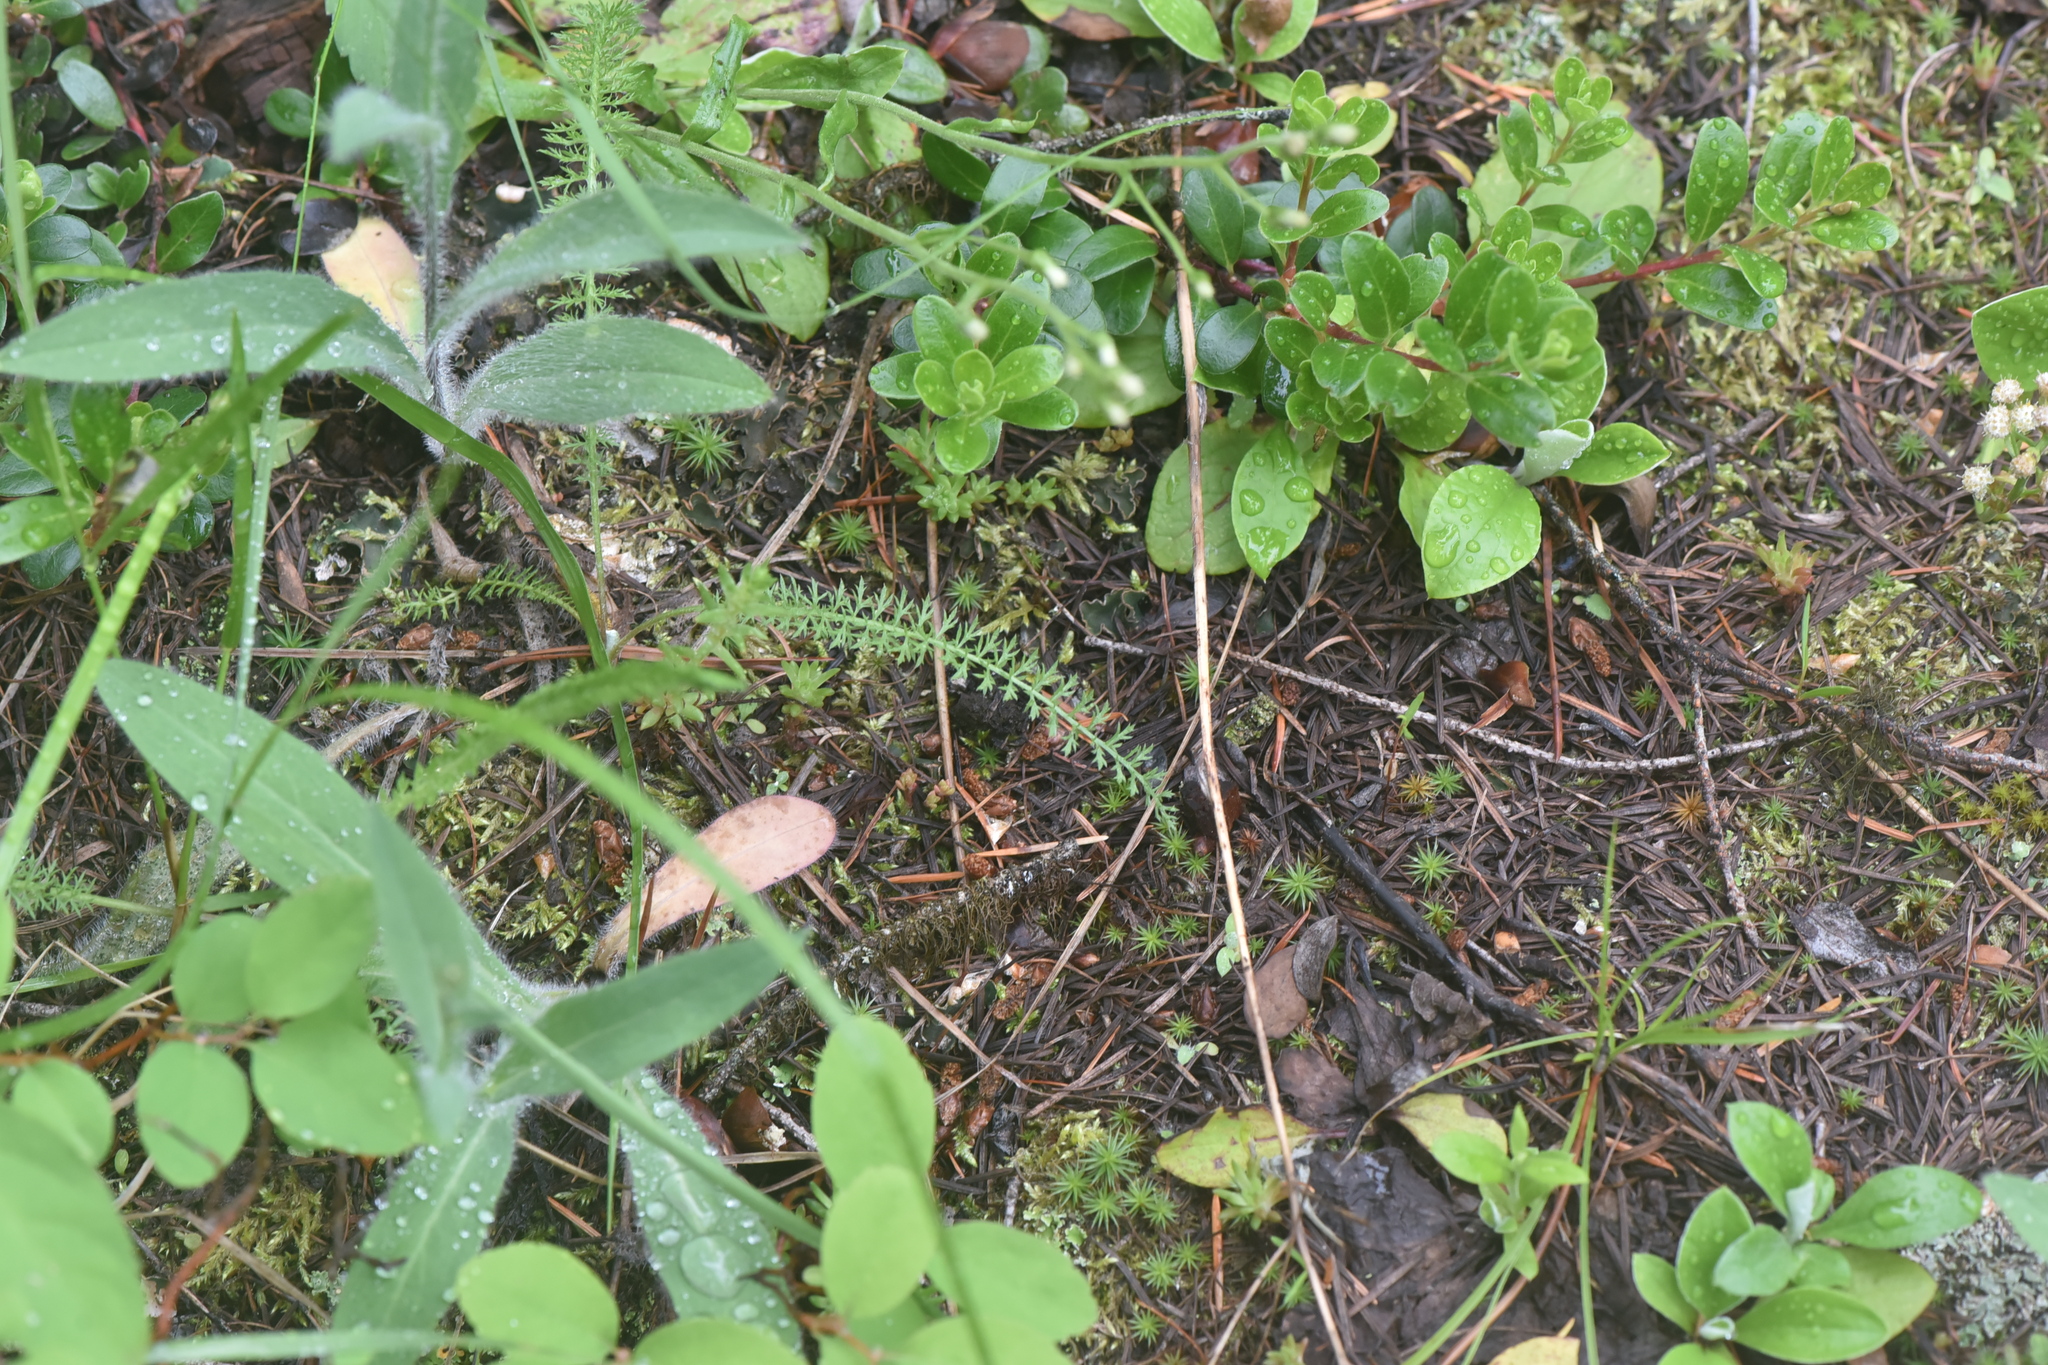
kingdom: Plantae
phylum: Tracheophyta
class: Magnoliopsida
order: Ericales
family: Ericaceae
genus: Arctostaphylos
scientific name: Arctostaphylos uva-ursi
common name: Bearberry
